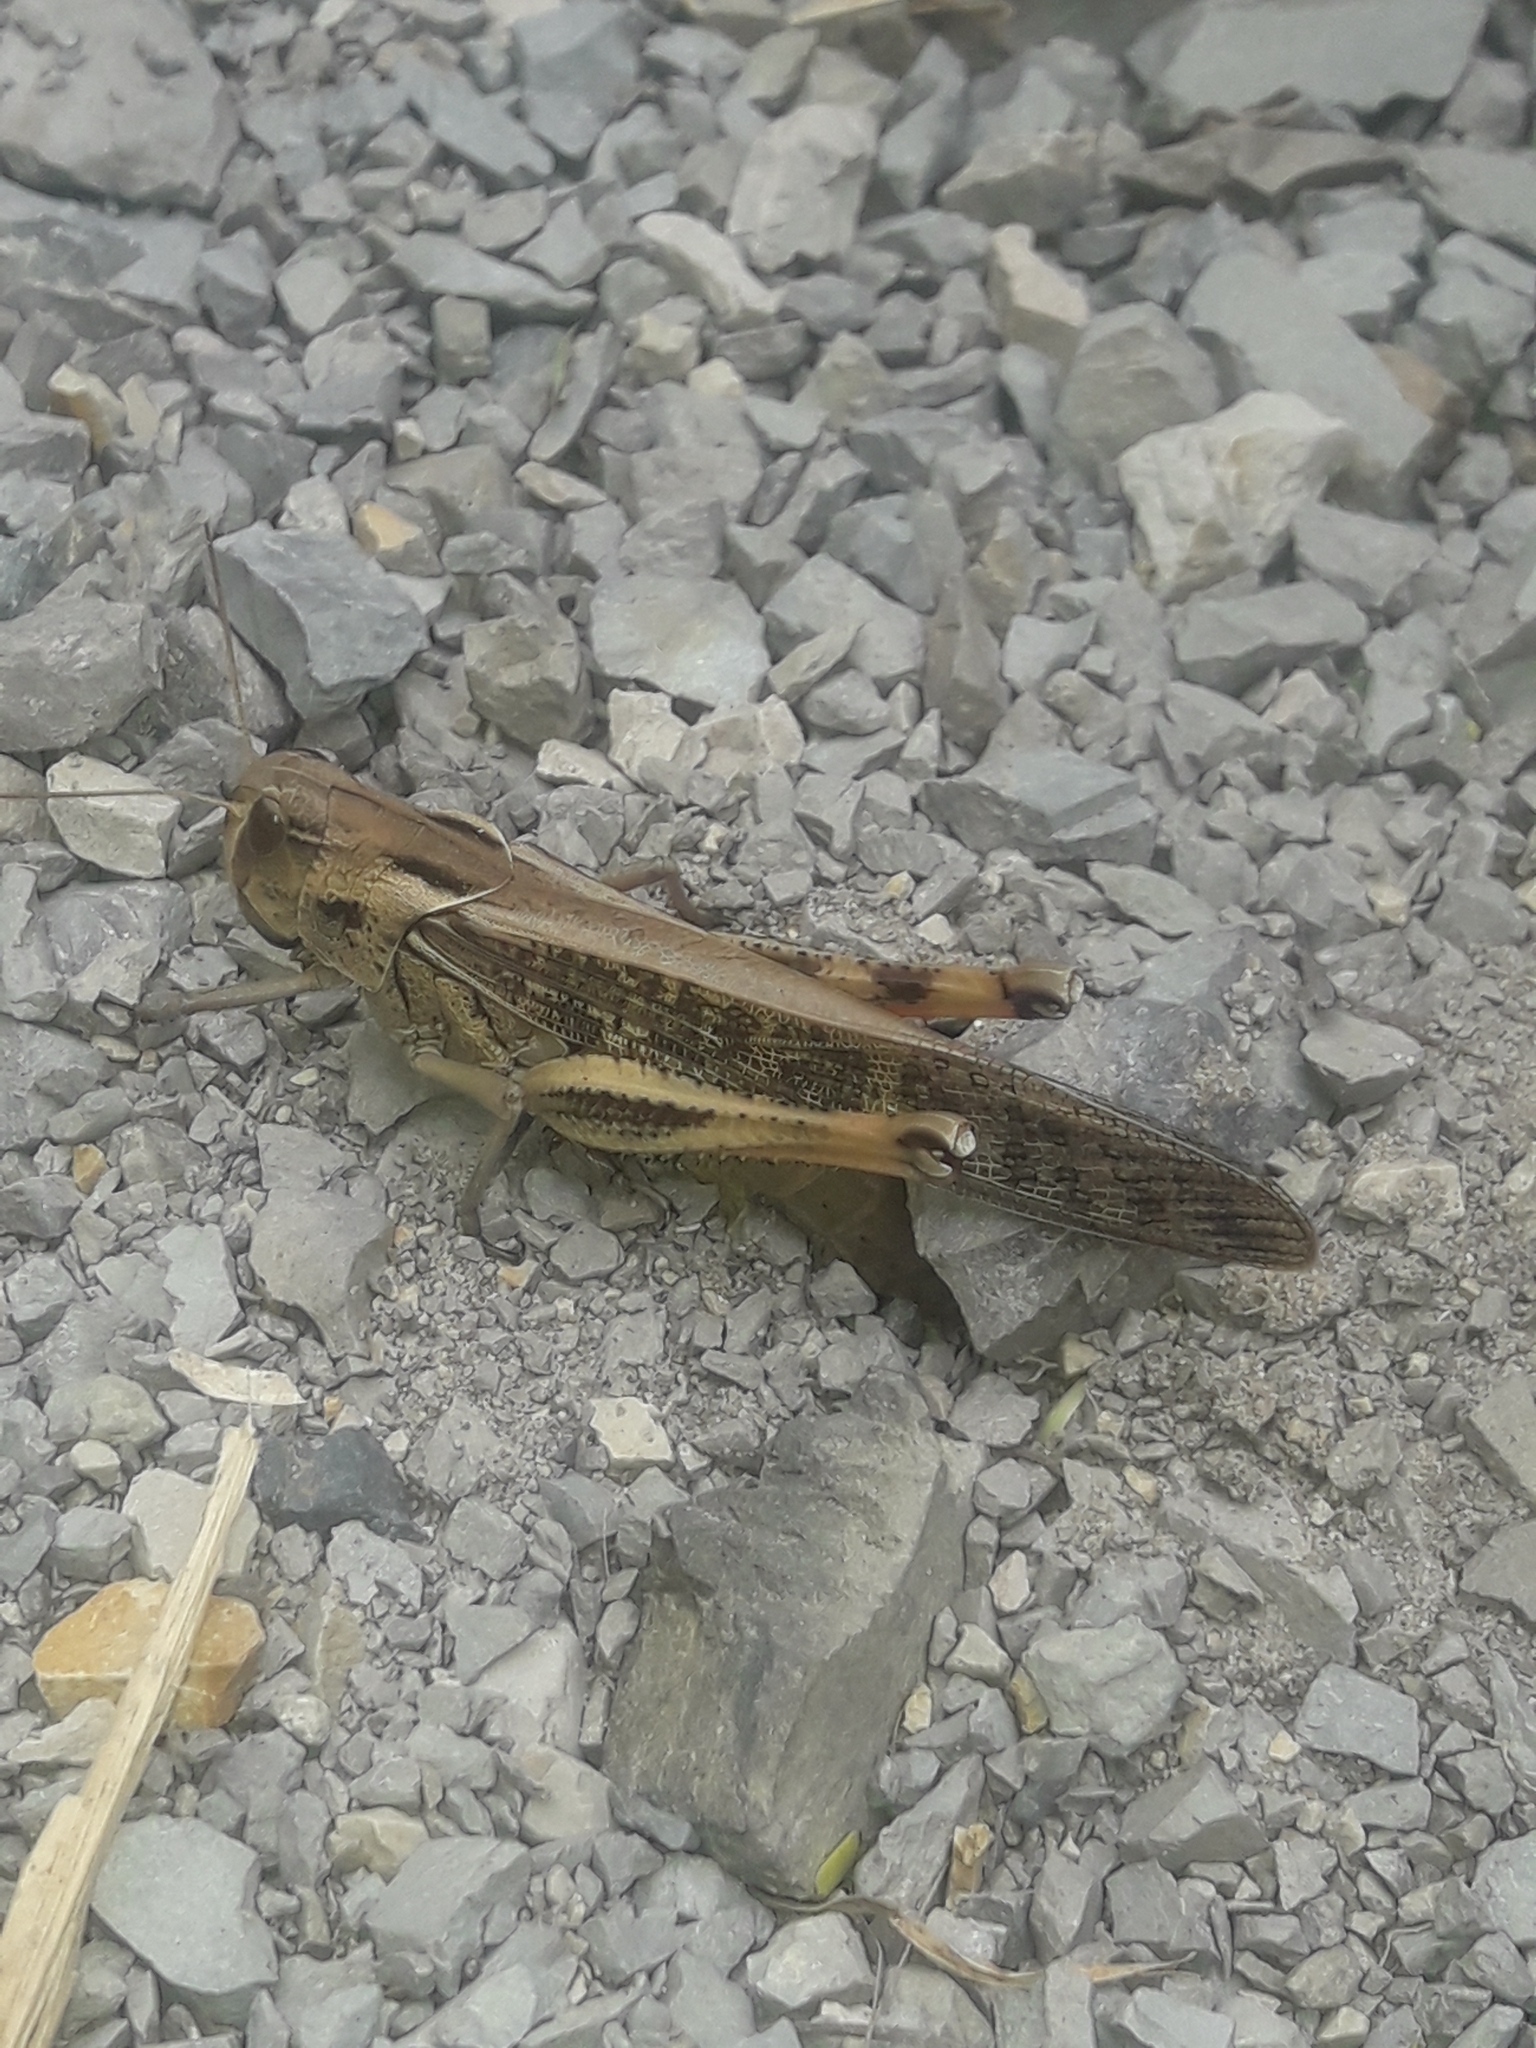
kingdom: Animalia
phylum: Arthropoda
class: Insecta
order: Orthoptera
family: Acrididae
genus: Locusta
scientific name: Locusta migratoria
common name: Migratory locust
